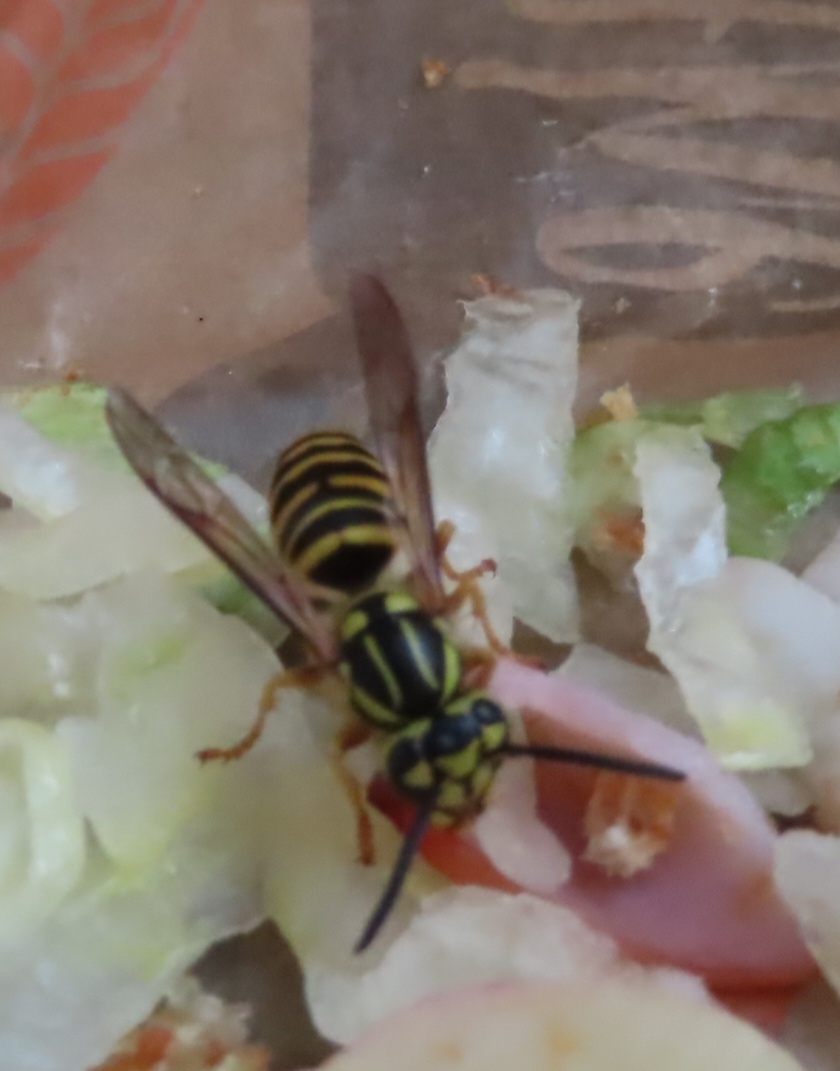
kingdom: Animalia
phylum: Arthropoda
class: Insecta
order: Hymenoptera
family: Vespidae
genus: Vespula
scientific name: Vespula squamosa
